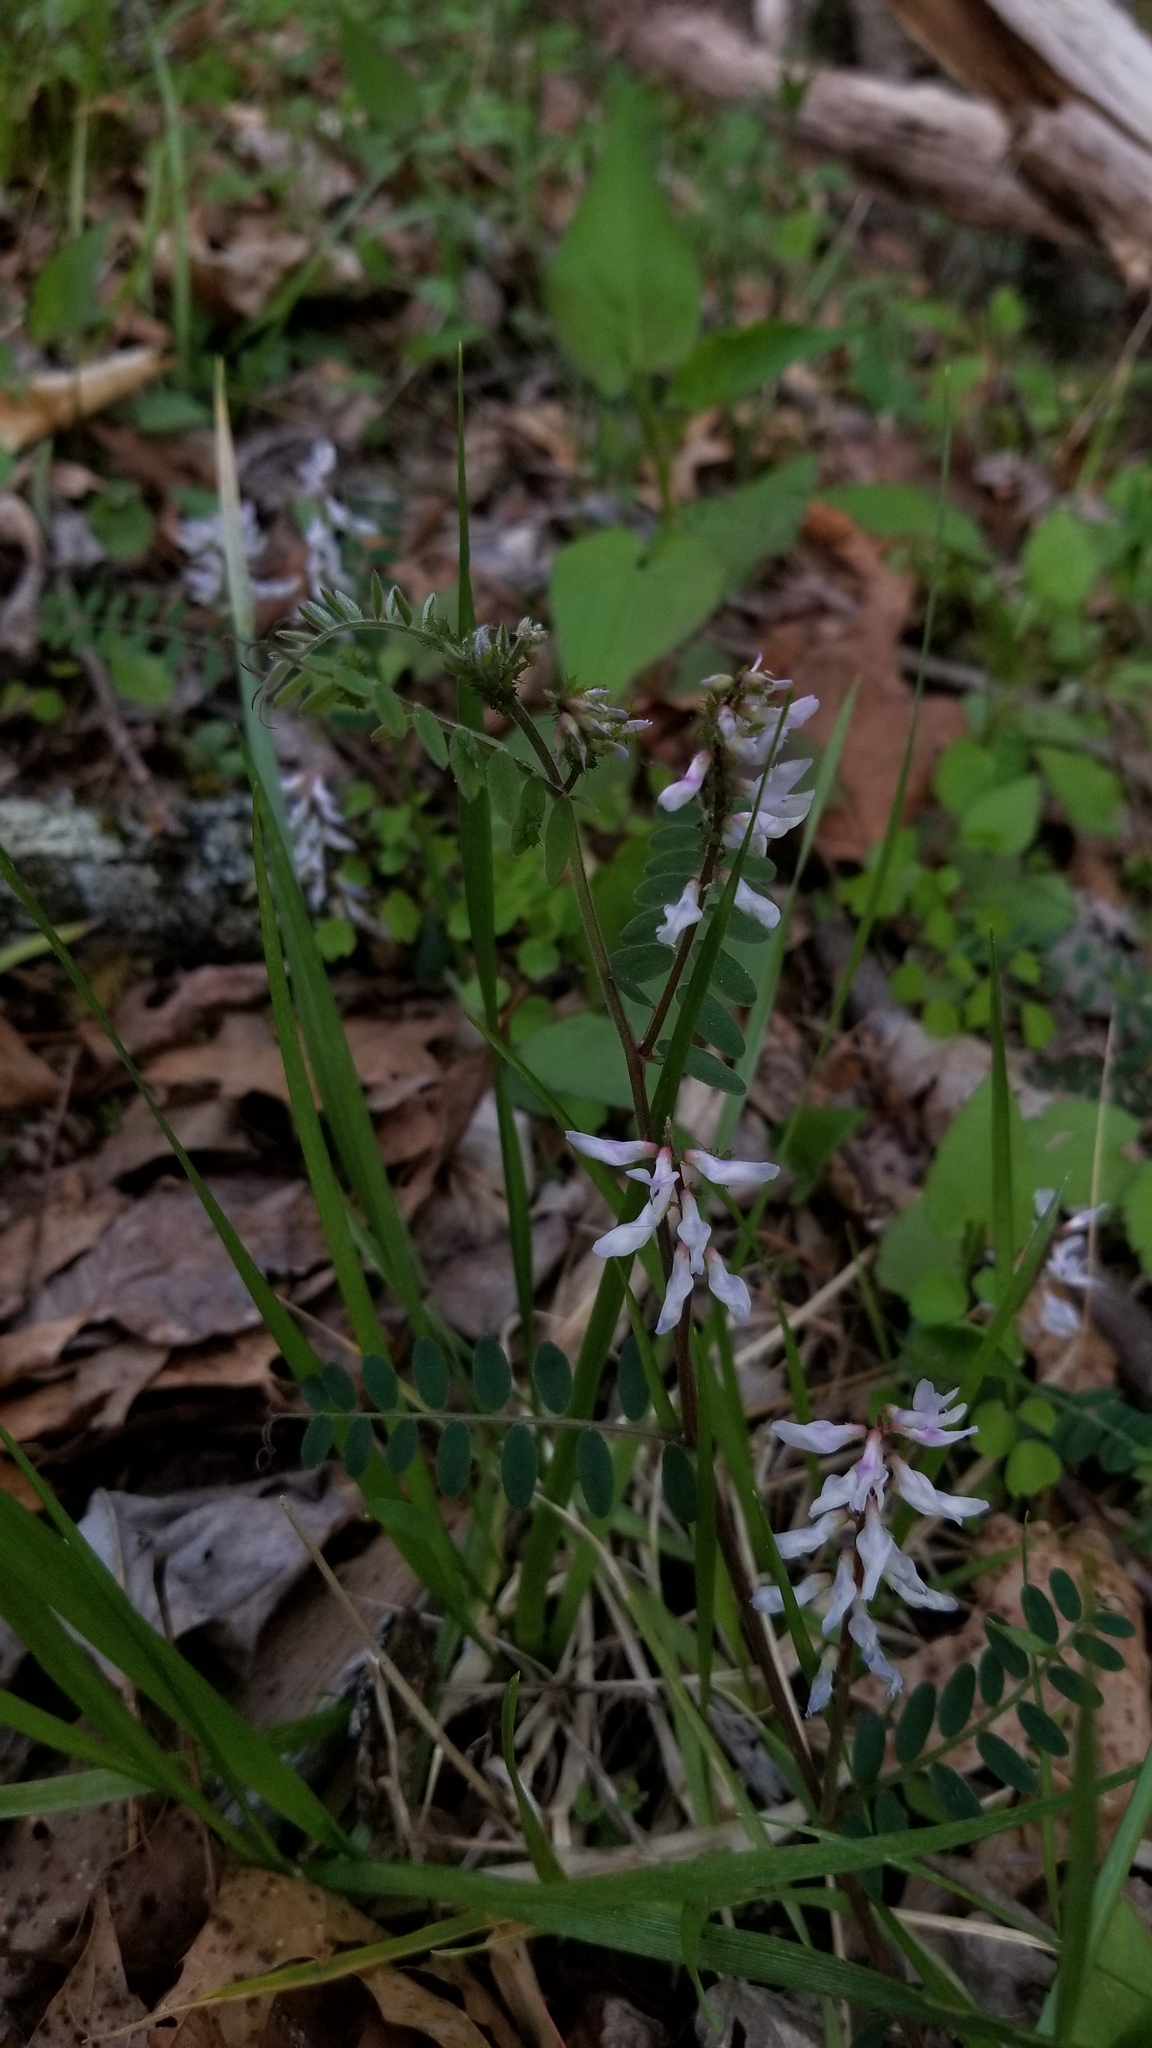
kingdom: Plantae
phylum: Tracheophyta
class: Magnoliopsida
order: Fabales
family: Fabaceae
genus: Vicia
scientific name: Vicia caroliniana
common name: Carolina vetch
